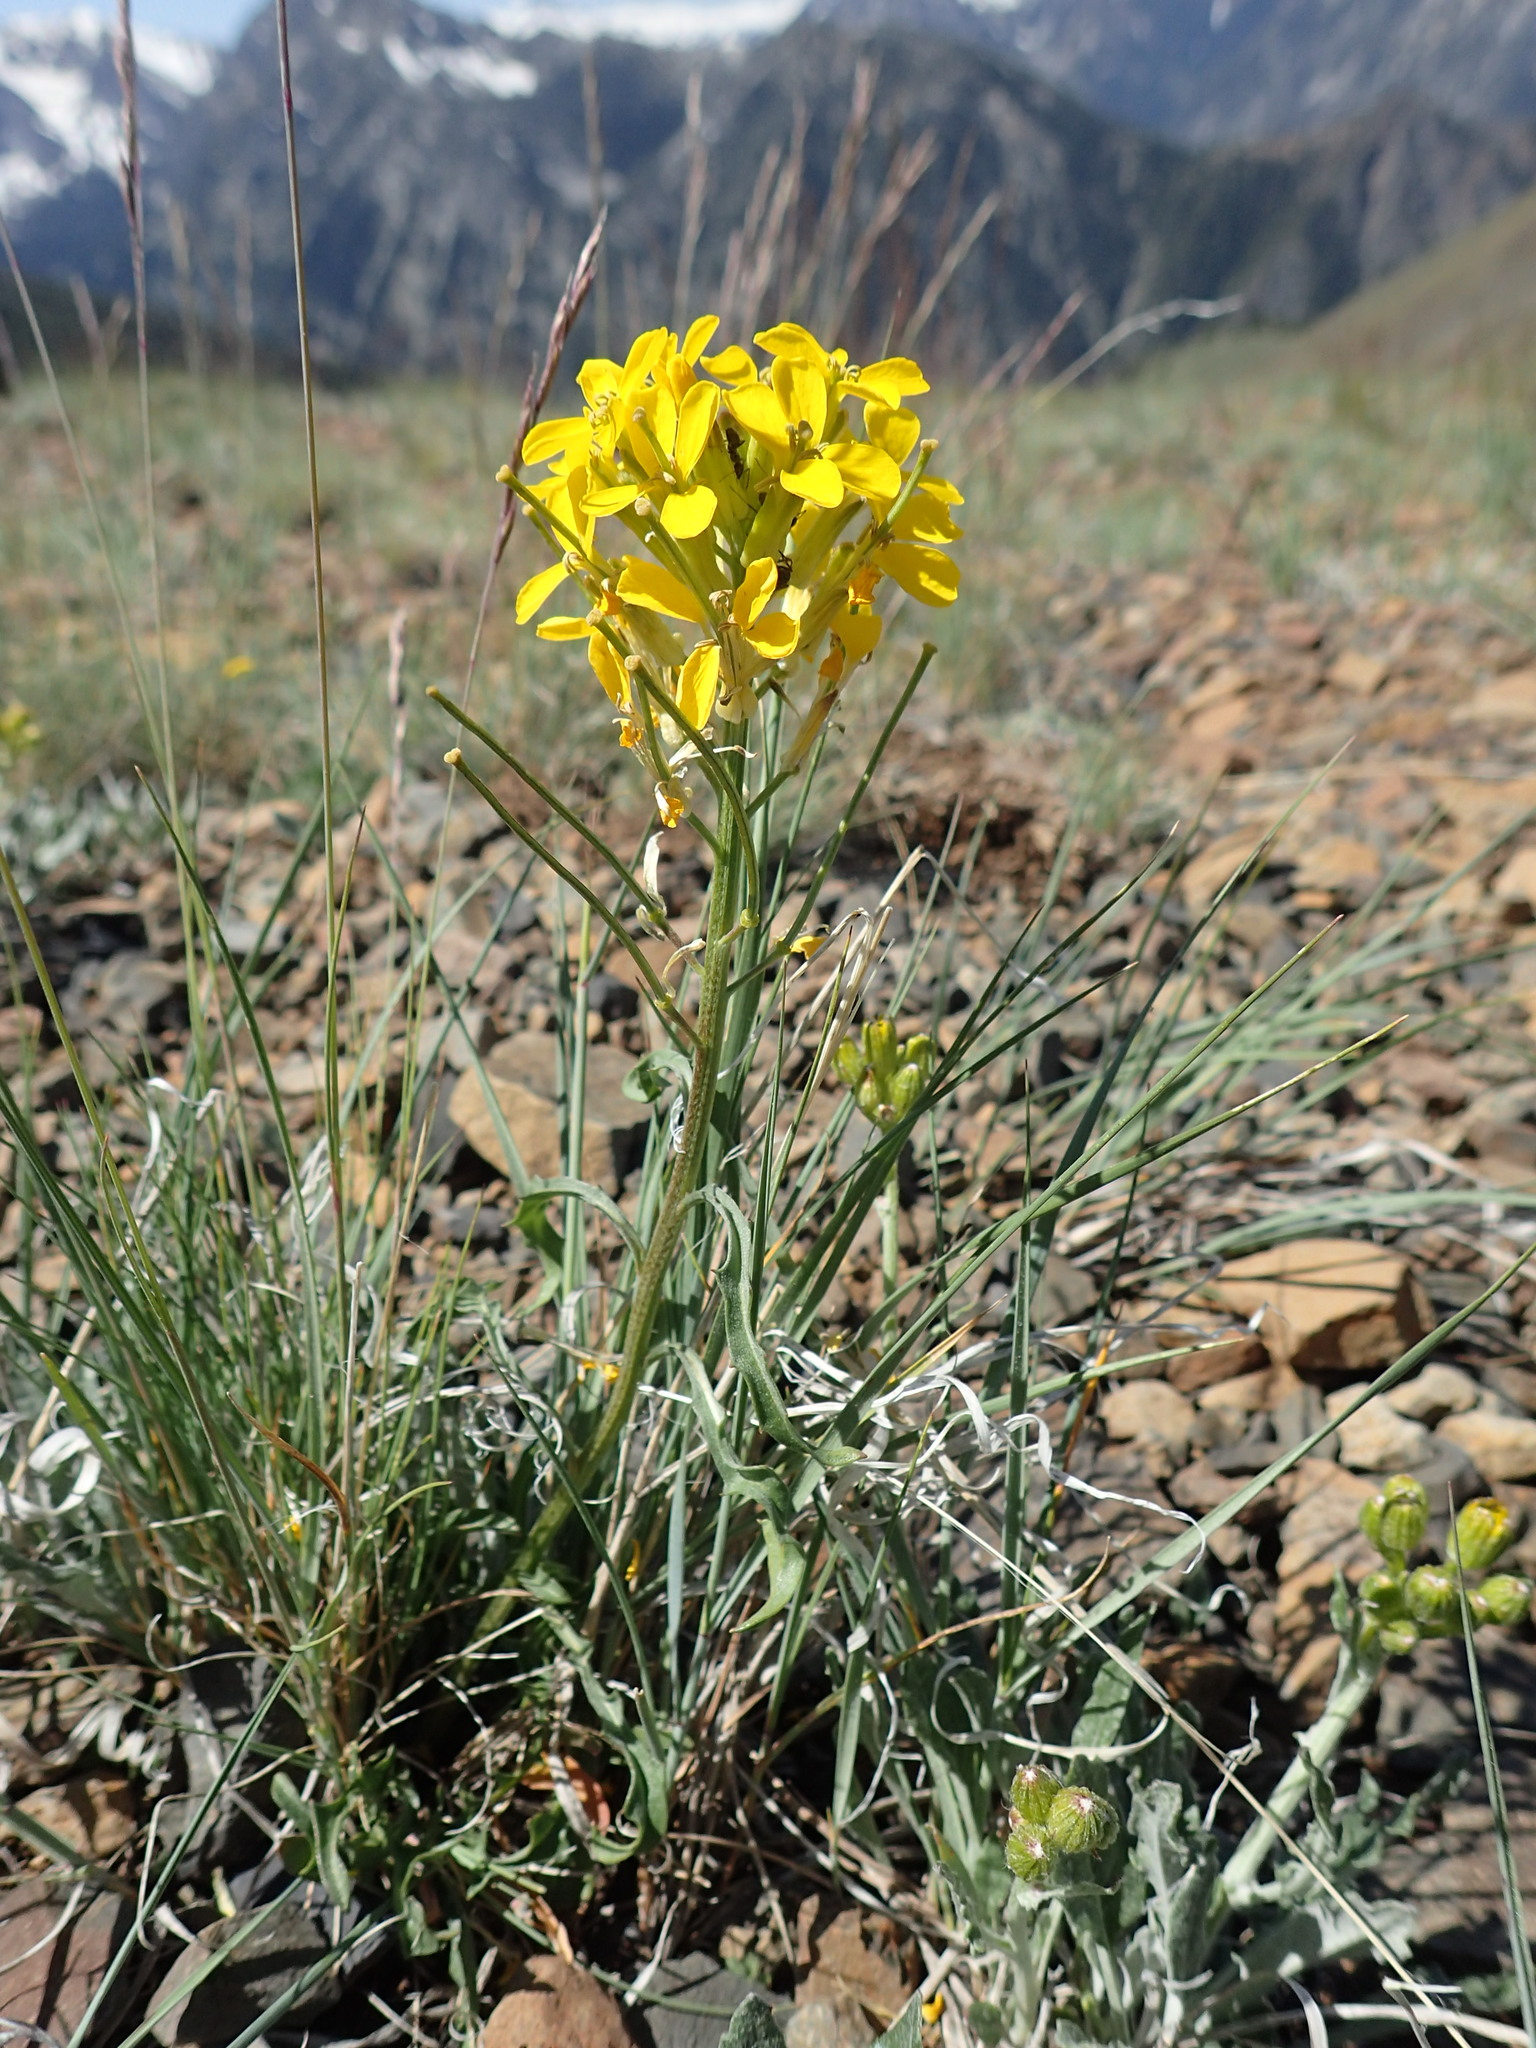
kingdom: Plantae
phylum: Tracheophyta
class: Magnoliopsida
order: Brassicales
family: Brassicaceae
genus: Erysimum
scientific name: Erysimum capitatum
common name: Western wallflower
